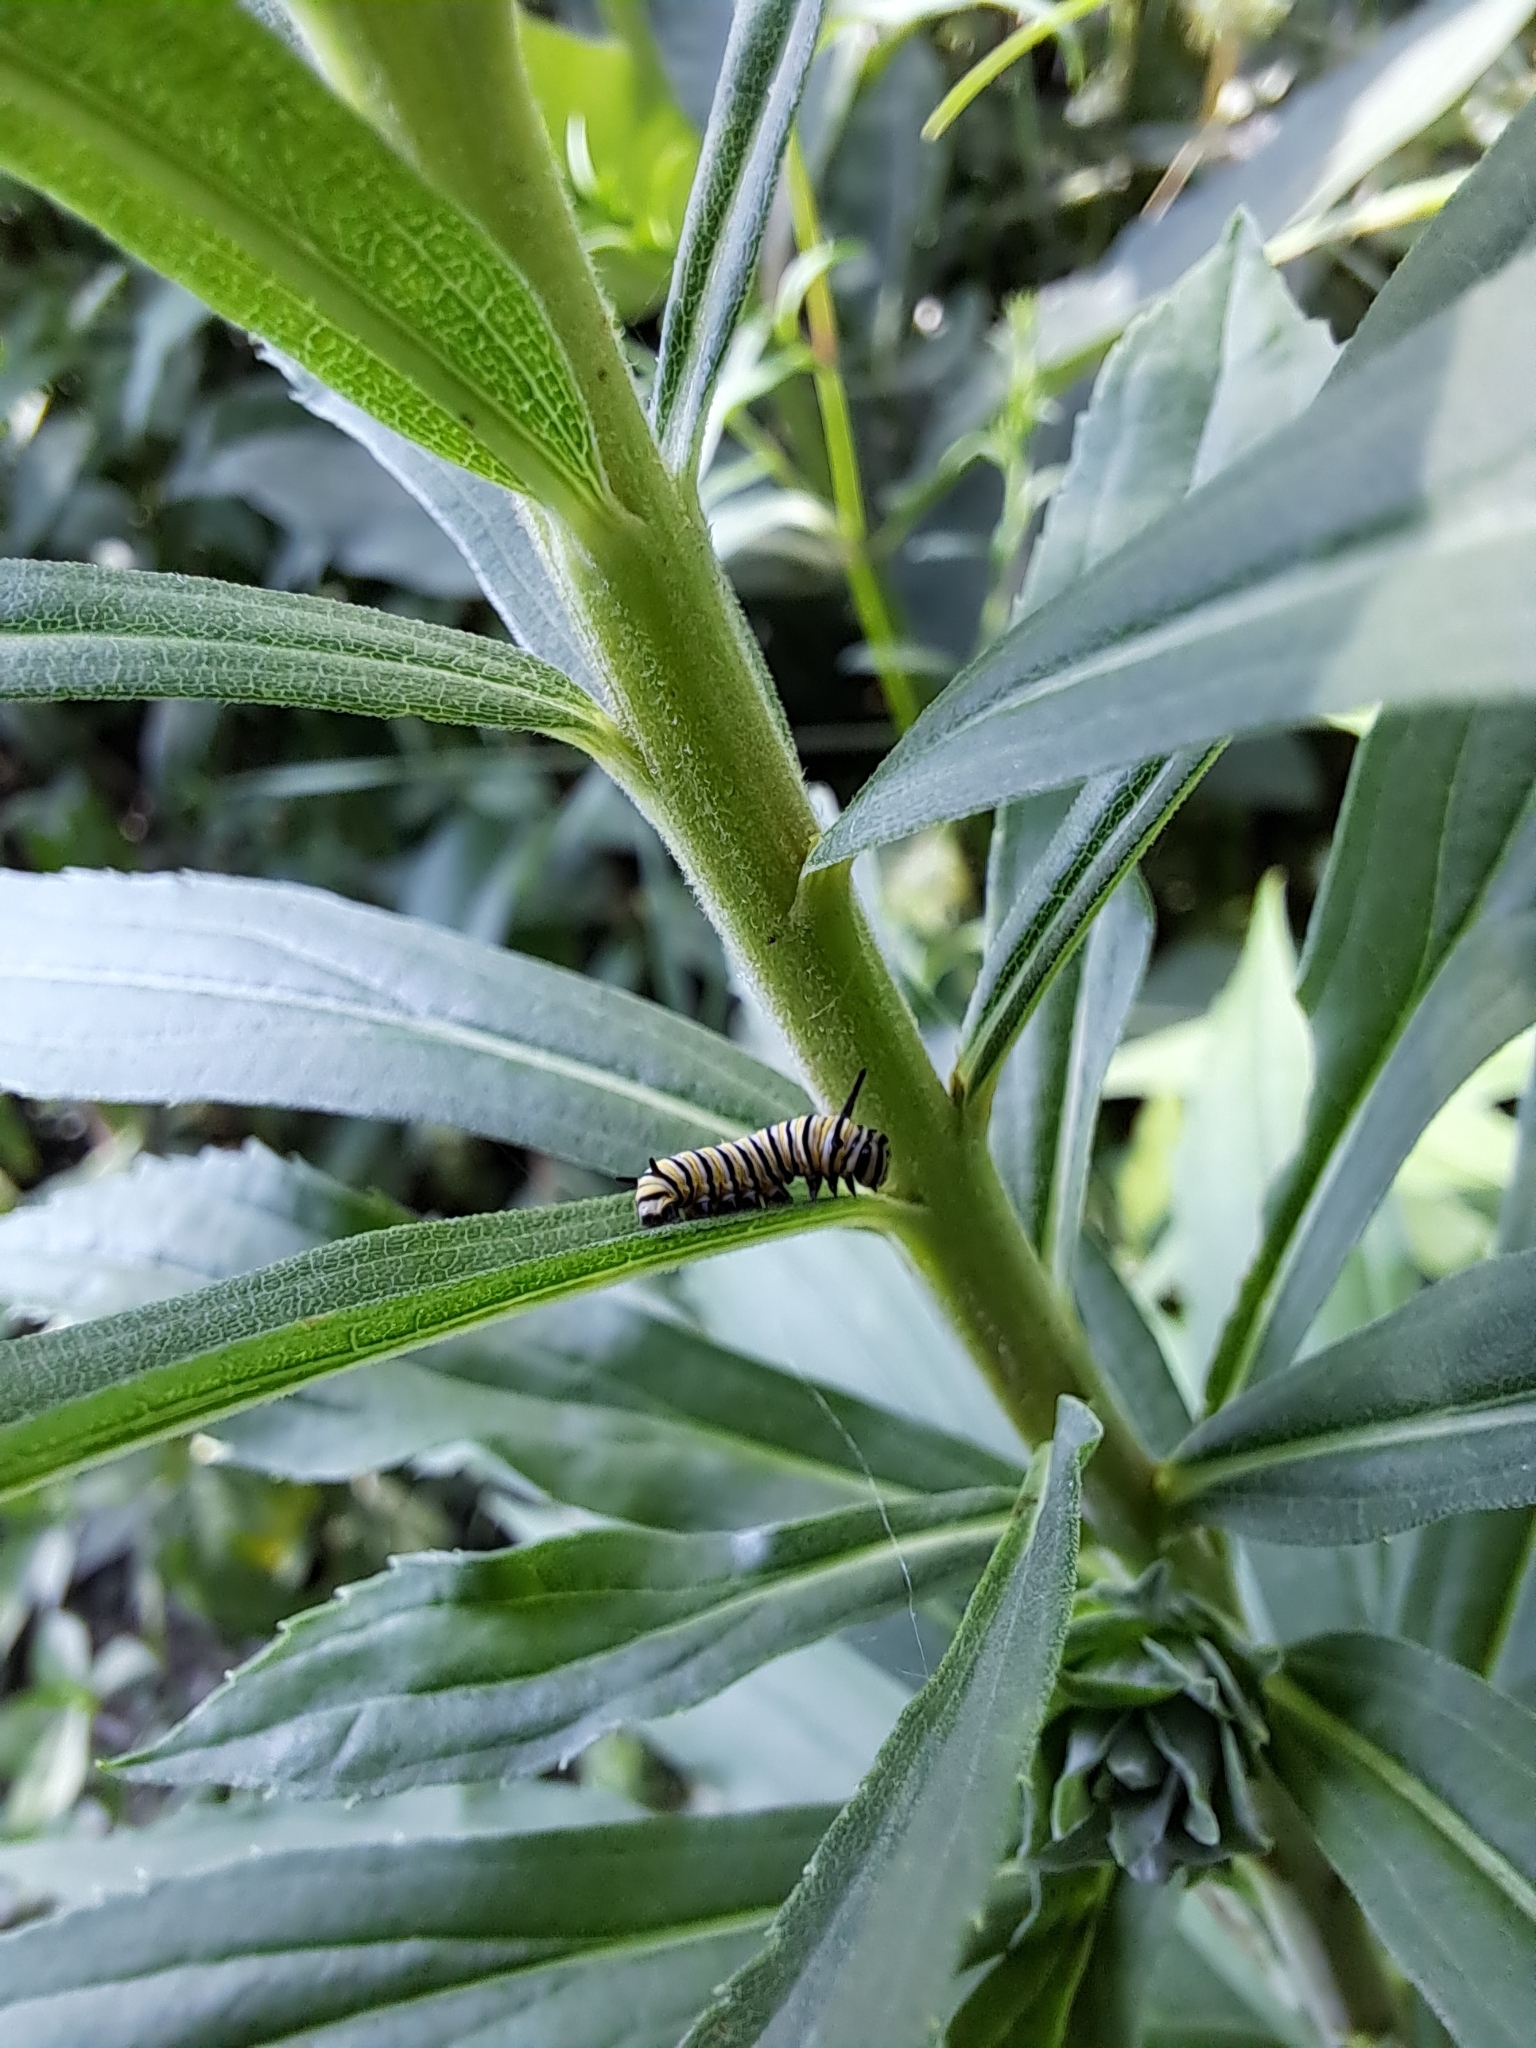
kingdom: Animalia
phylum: Arthropoda
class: Insecta
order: Lepidoptera
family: Nymphalidae
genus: Danaus
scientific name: Danaus plexippus
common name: Monarch
